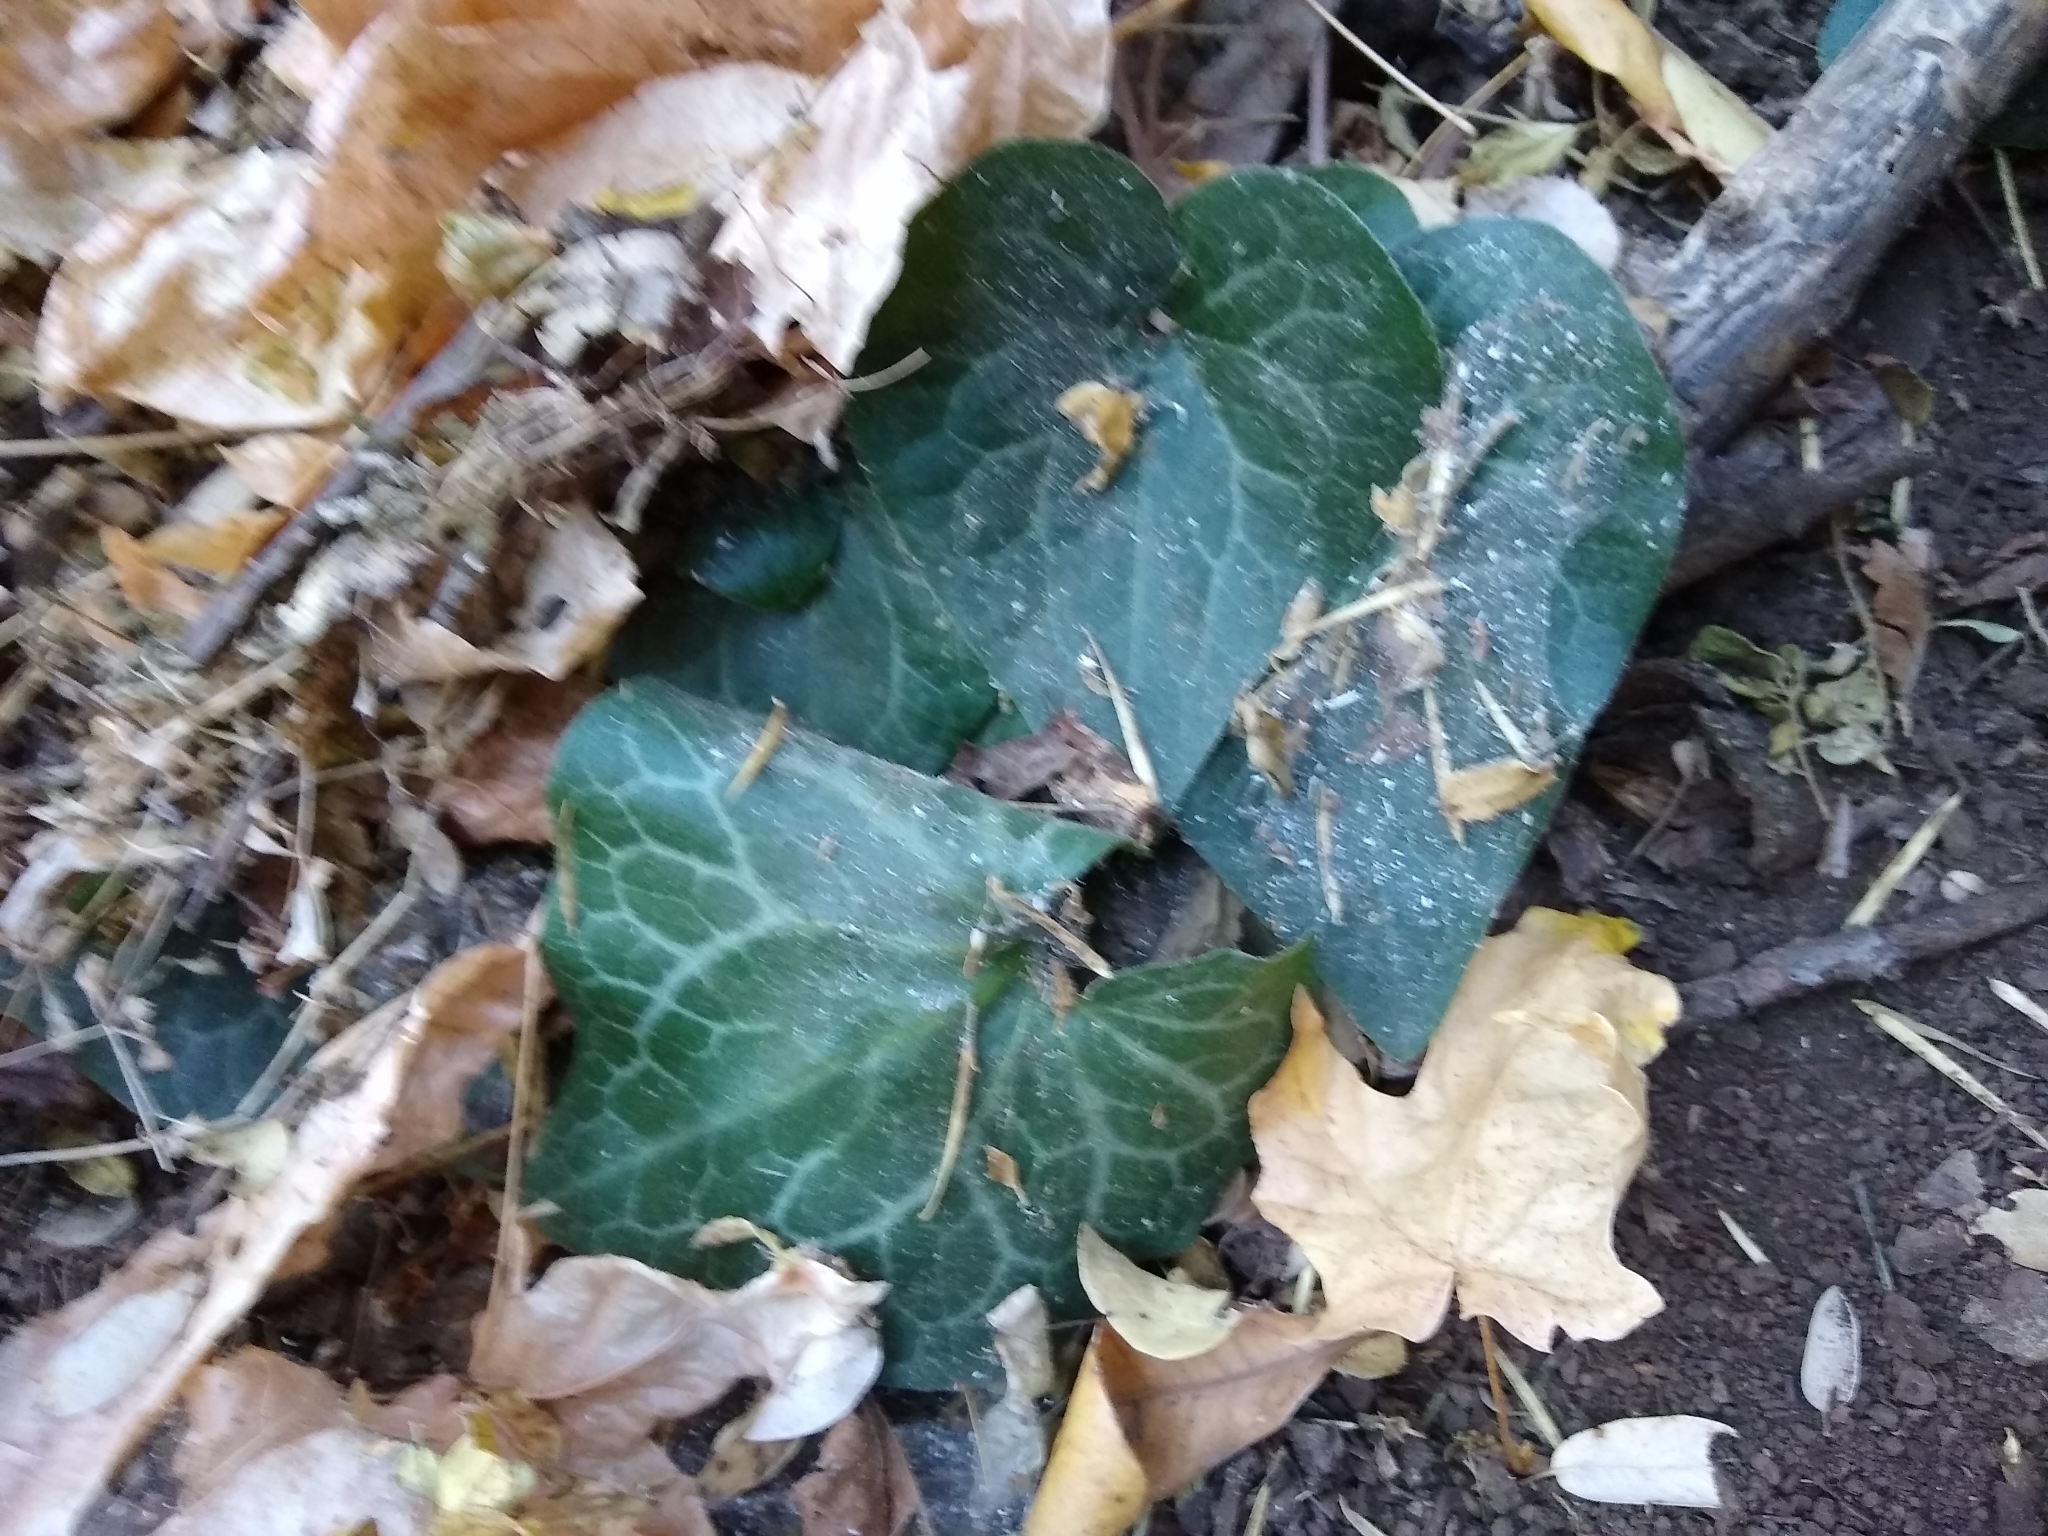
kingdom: Plantae
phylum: Tracheophyta
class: Magnoliopsida
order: Piperales
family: Aristolochiaceae
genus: Asarum
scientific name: Asarum hartwegii
